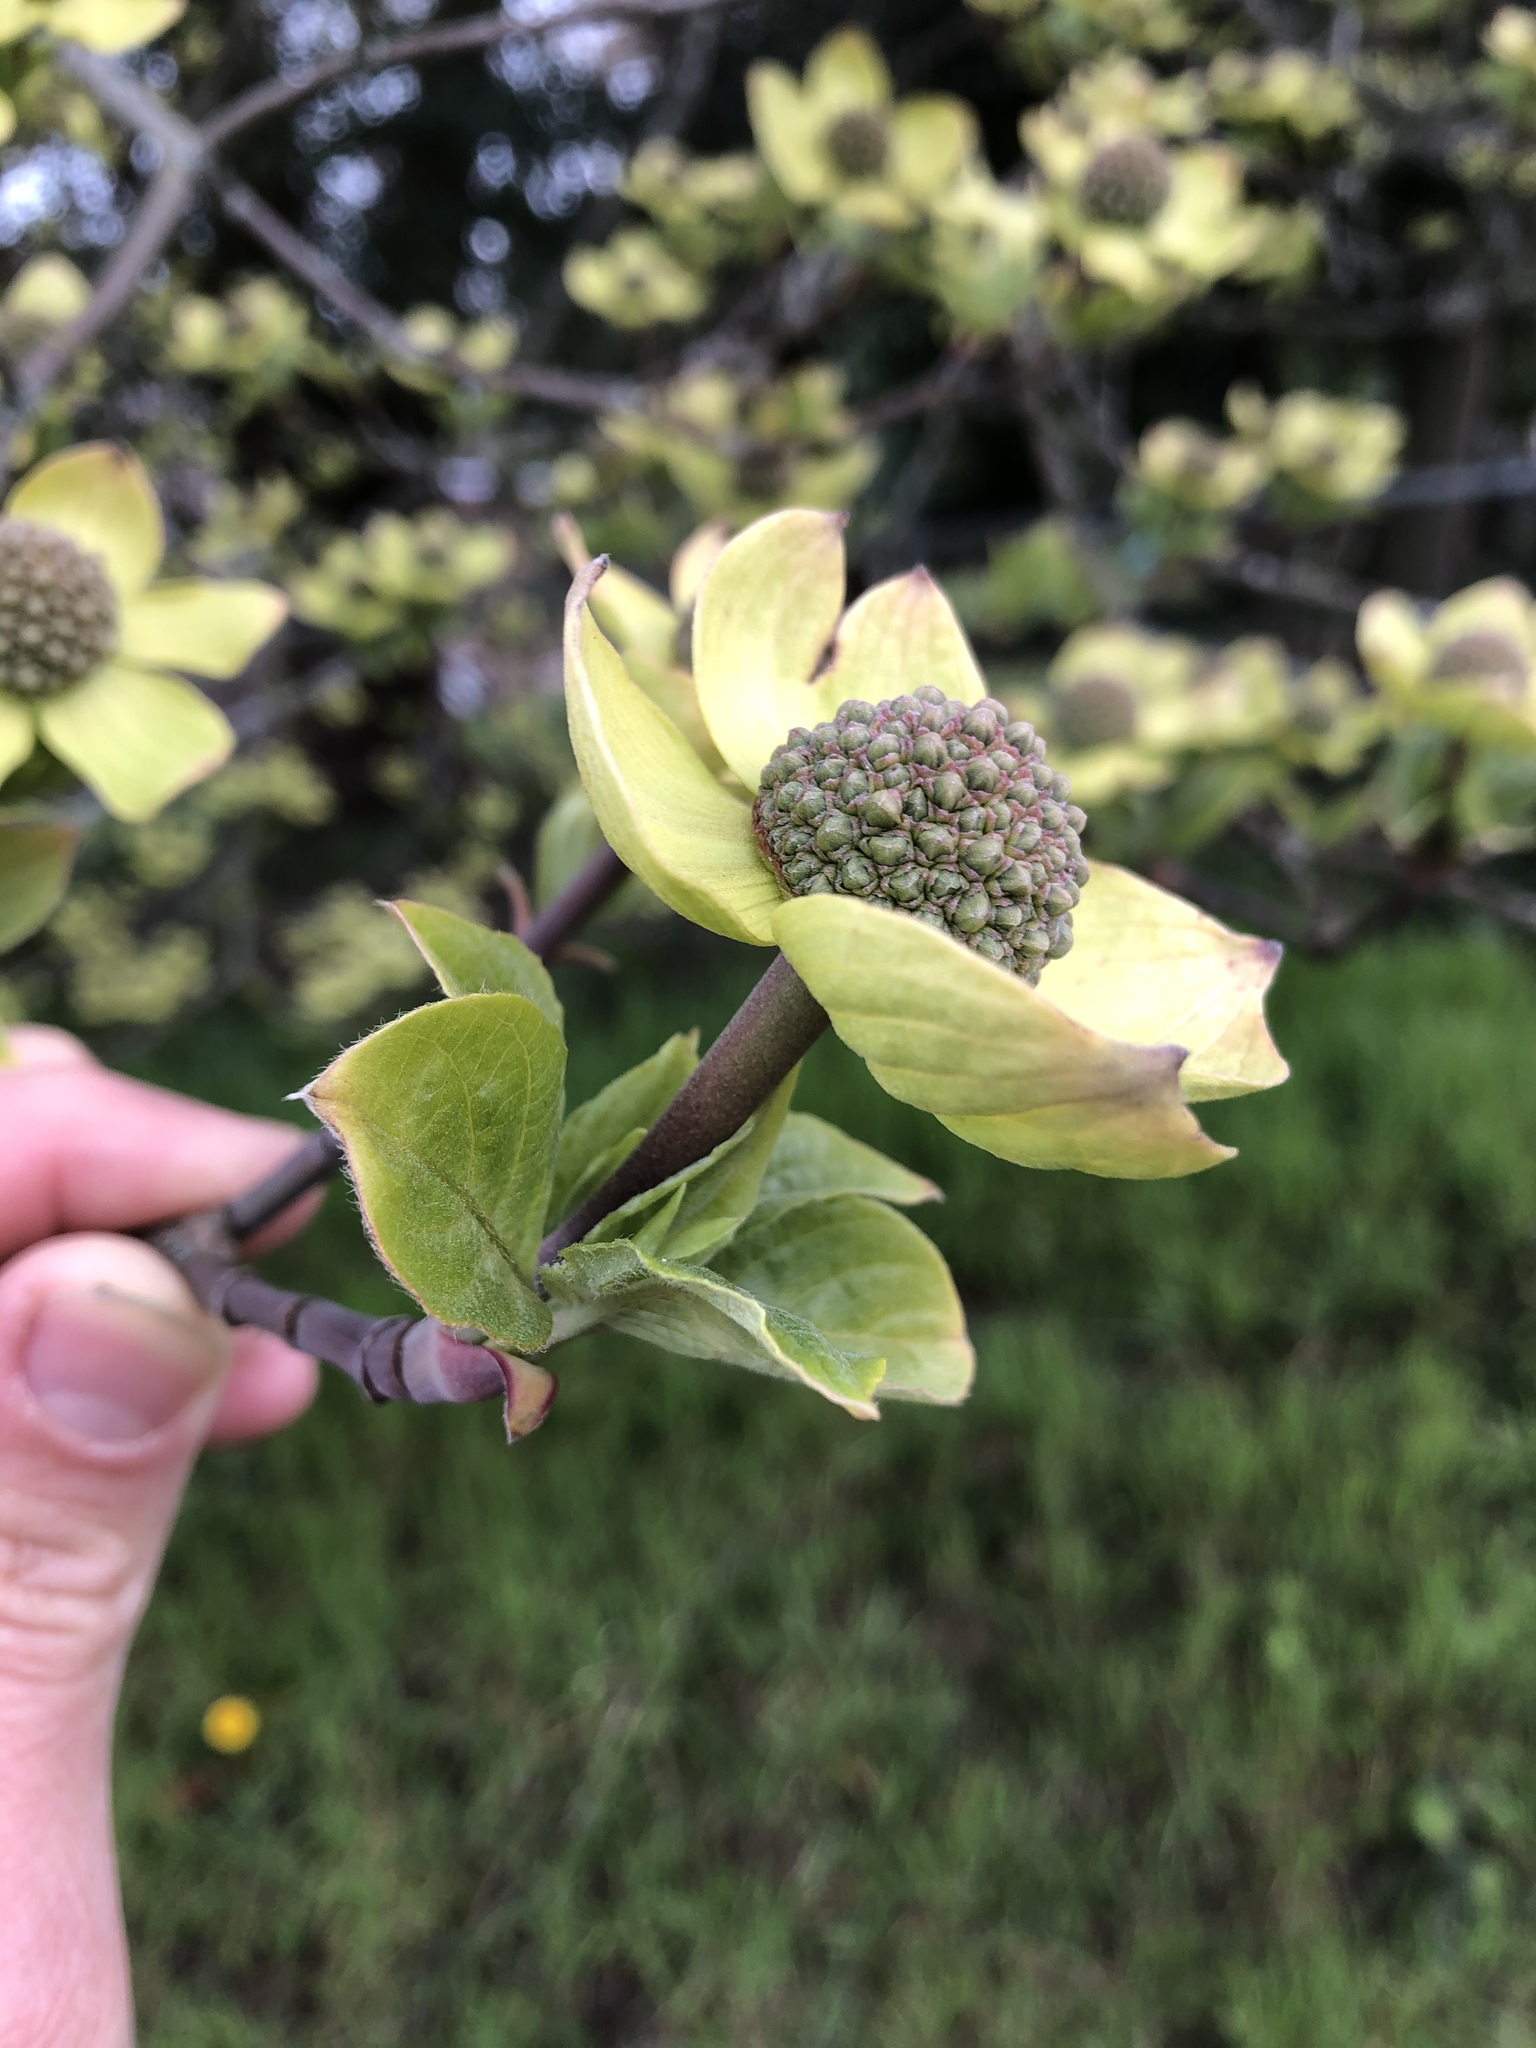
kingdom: Plantae
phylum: Tracheophyta
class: Magnoliopsida
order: Cornales
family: Cornaceae
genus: Cornus
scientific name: Cornus nuttallii
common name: Pacific dogwood
